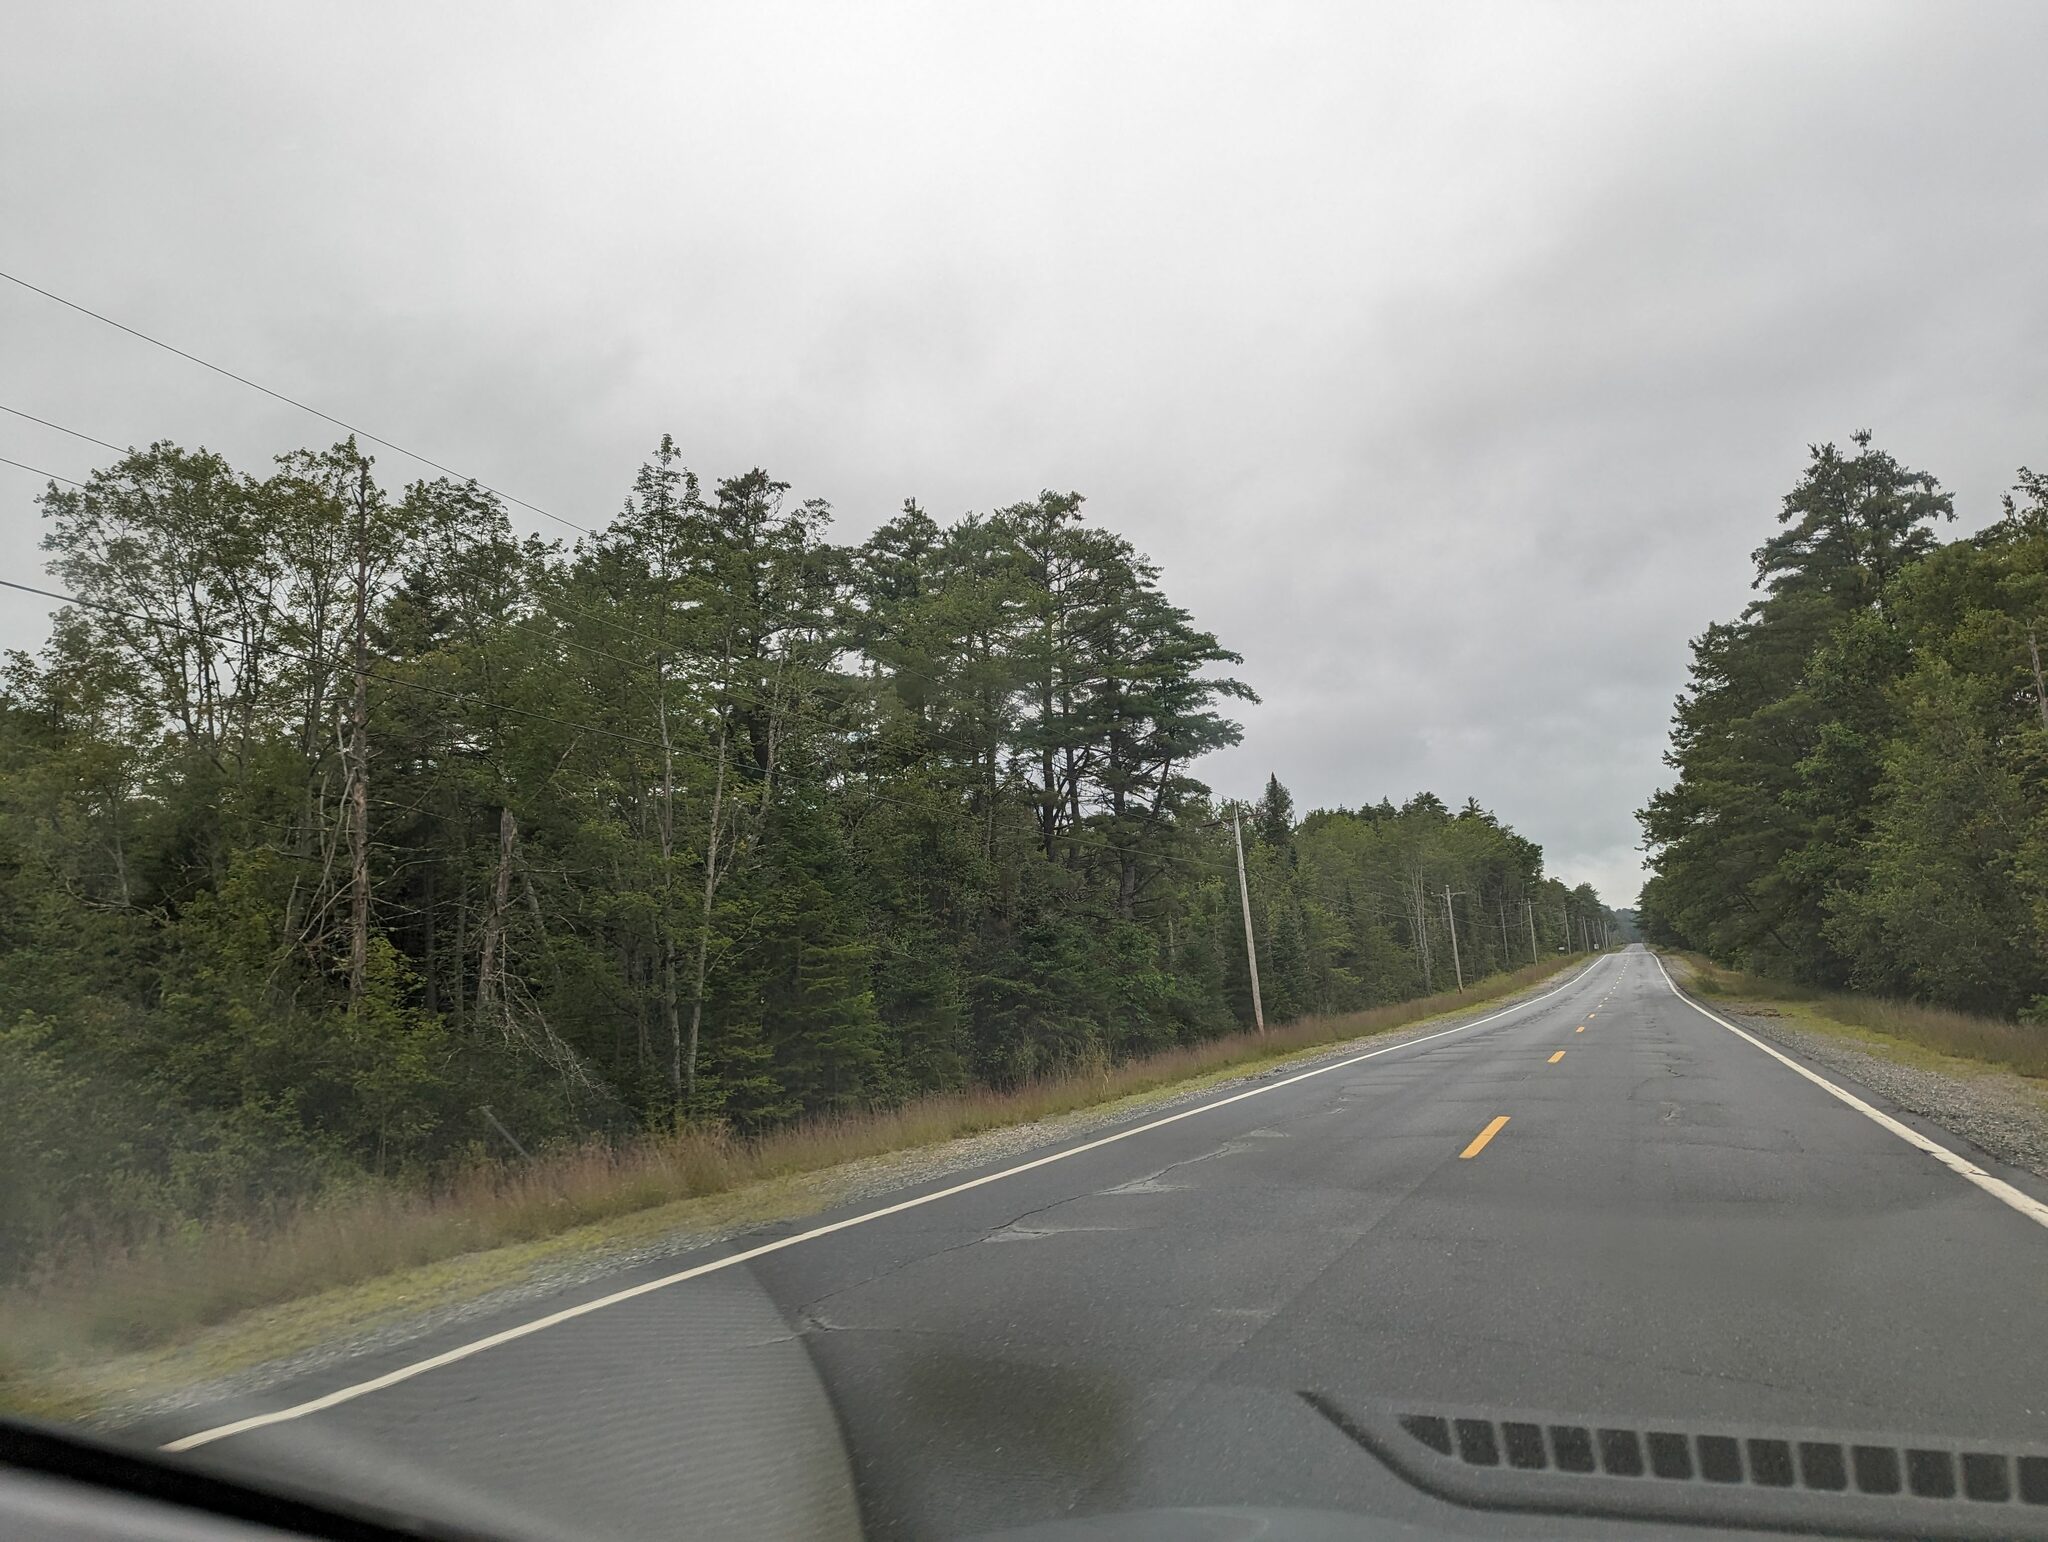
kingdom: Plantae
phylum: Tracheophyta
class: Pinopsida
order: Pinales
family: Pinaceae
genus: Pinus
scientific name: Pinus strobus
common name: Weymouth pine
